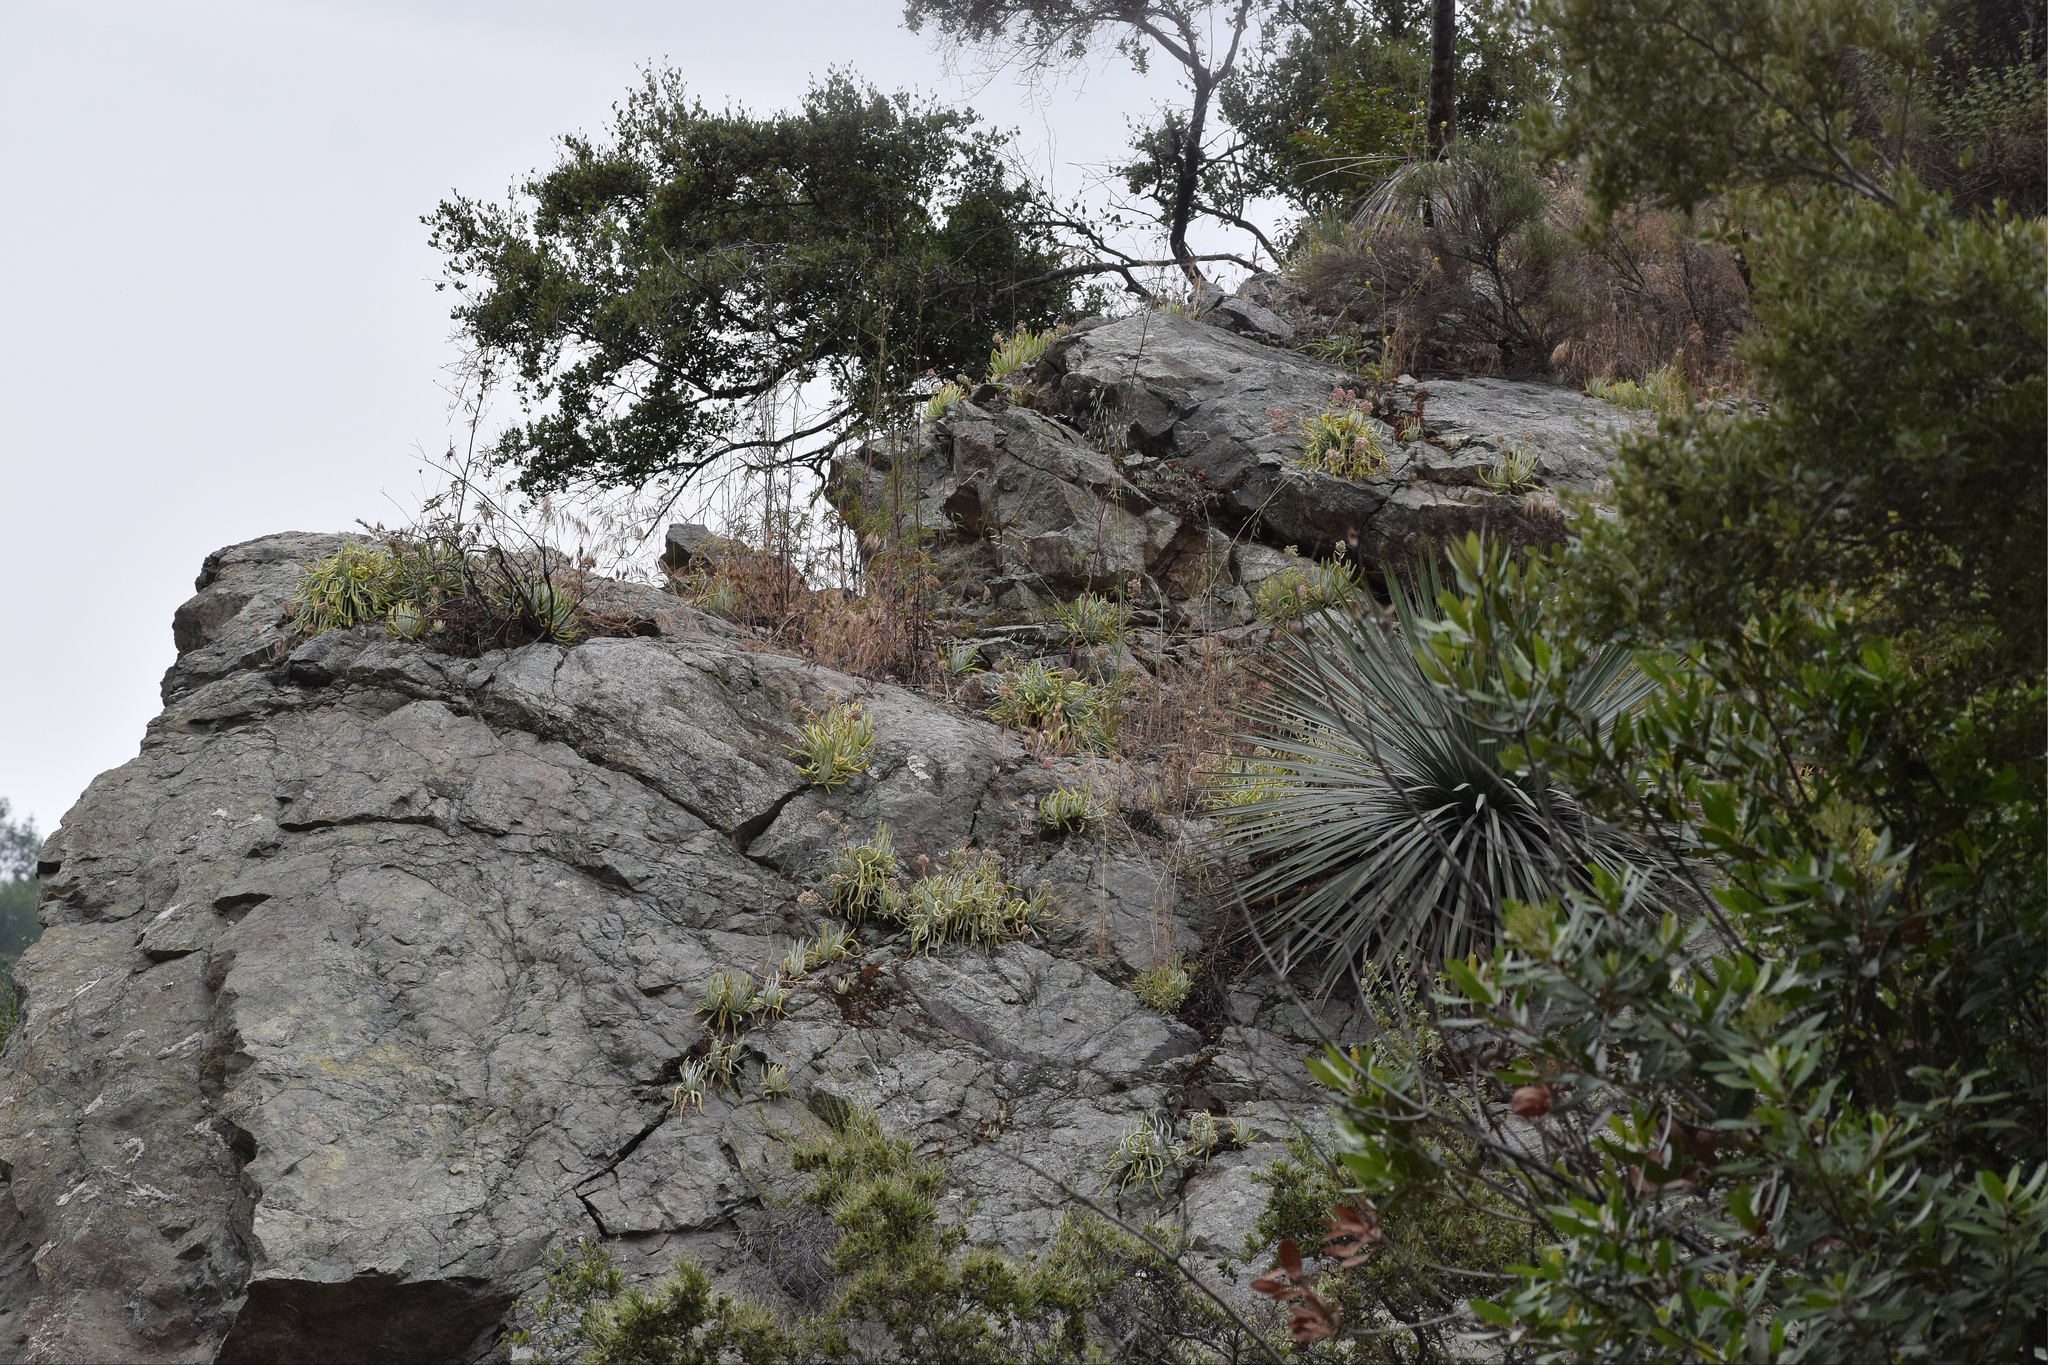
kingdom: Plantae
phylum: Tracheophyta
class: Magnoliopsida
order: Saxifragales
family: Crassulaceae
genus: Dudleya
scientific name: Dudleya densiflora
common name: San gabriel mountains dudleya
